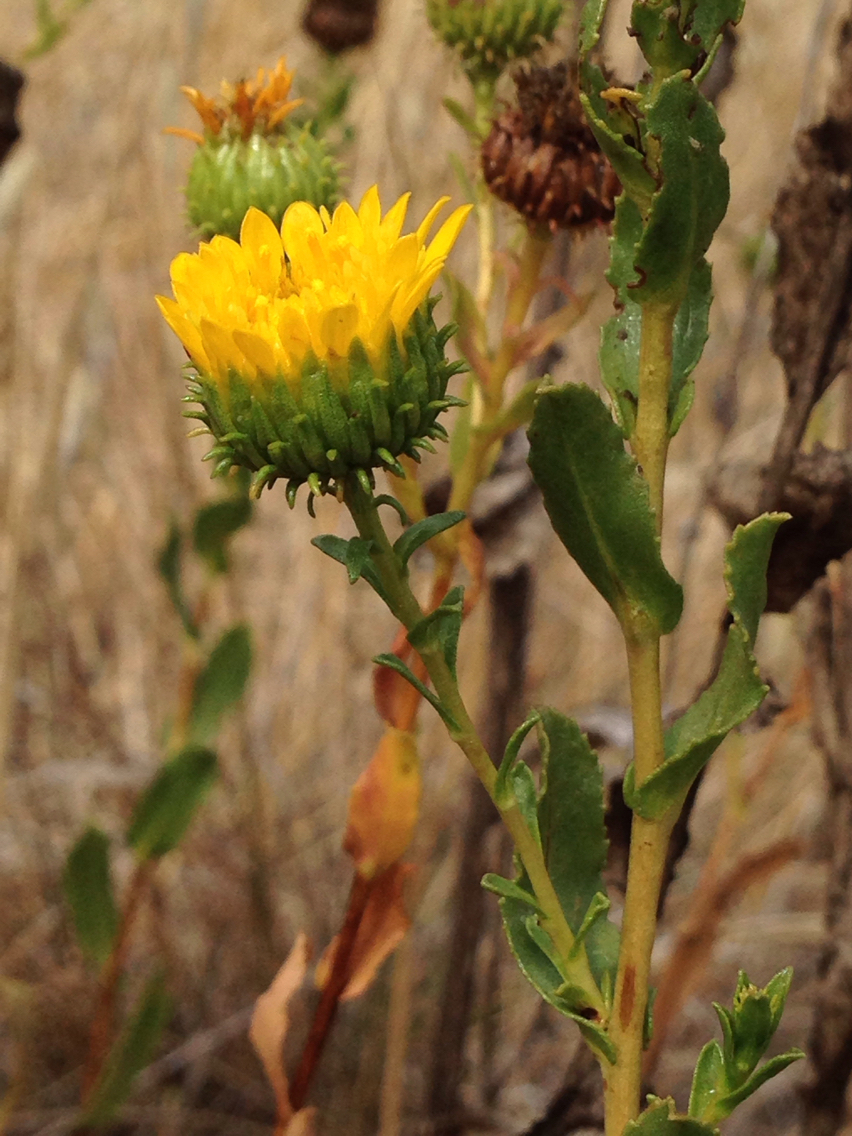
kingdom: Plantae
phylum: Tracheophyta
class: Magnoliopsida
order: Asterales
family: Asteraceae
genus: Grindelia
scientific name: Grindelia hirsutula
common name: Hairy gumweed
